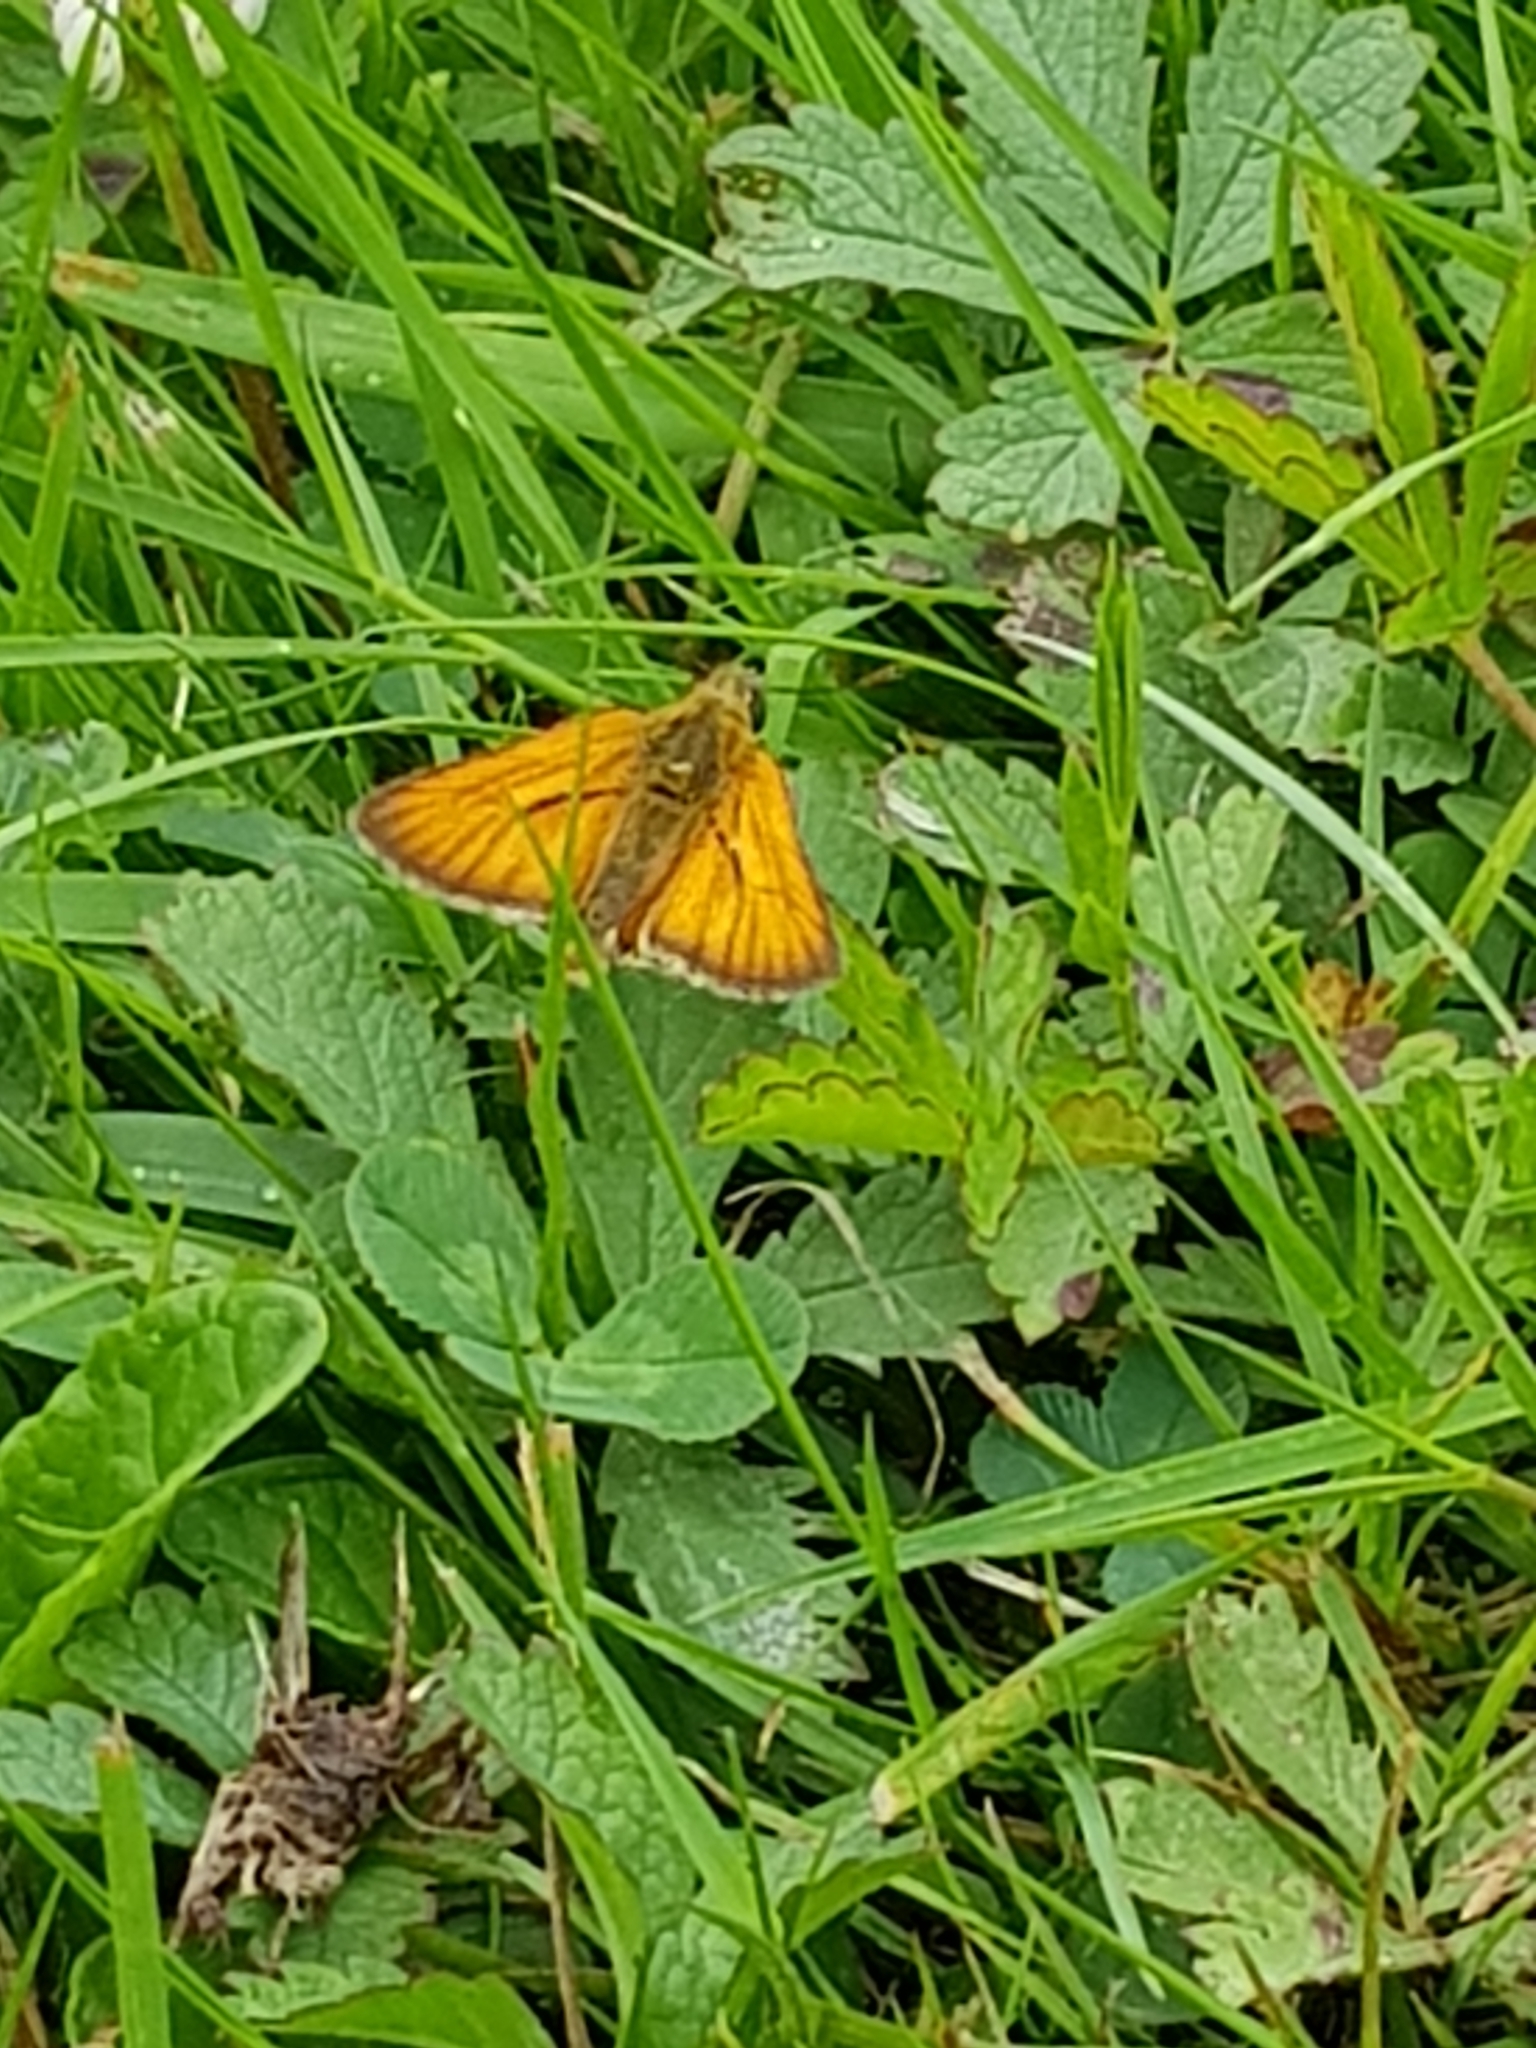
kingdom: Animalia
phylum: Arthropoda
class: Insecta
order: Lepidoptera
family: Hesperiidae
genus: Thymelicus
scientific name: Thymelicus sylvestris
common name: Small skipper
